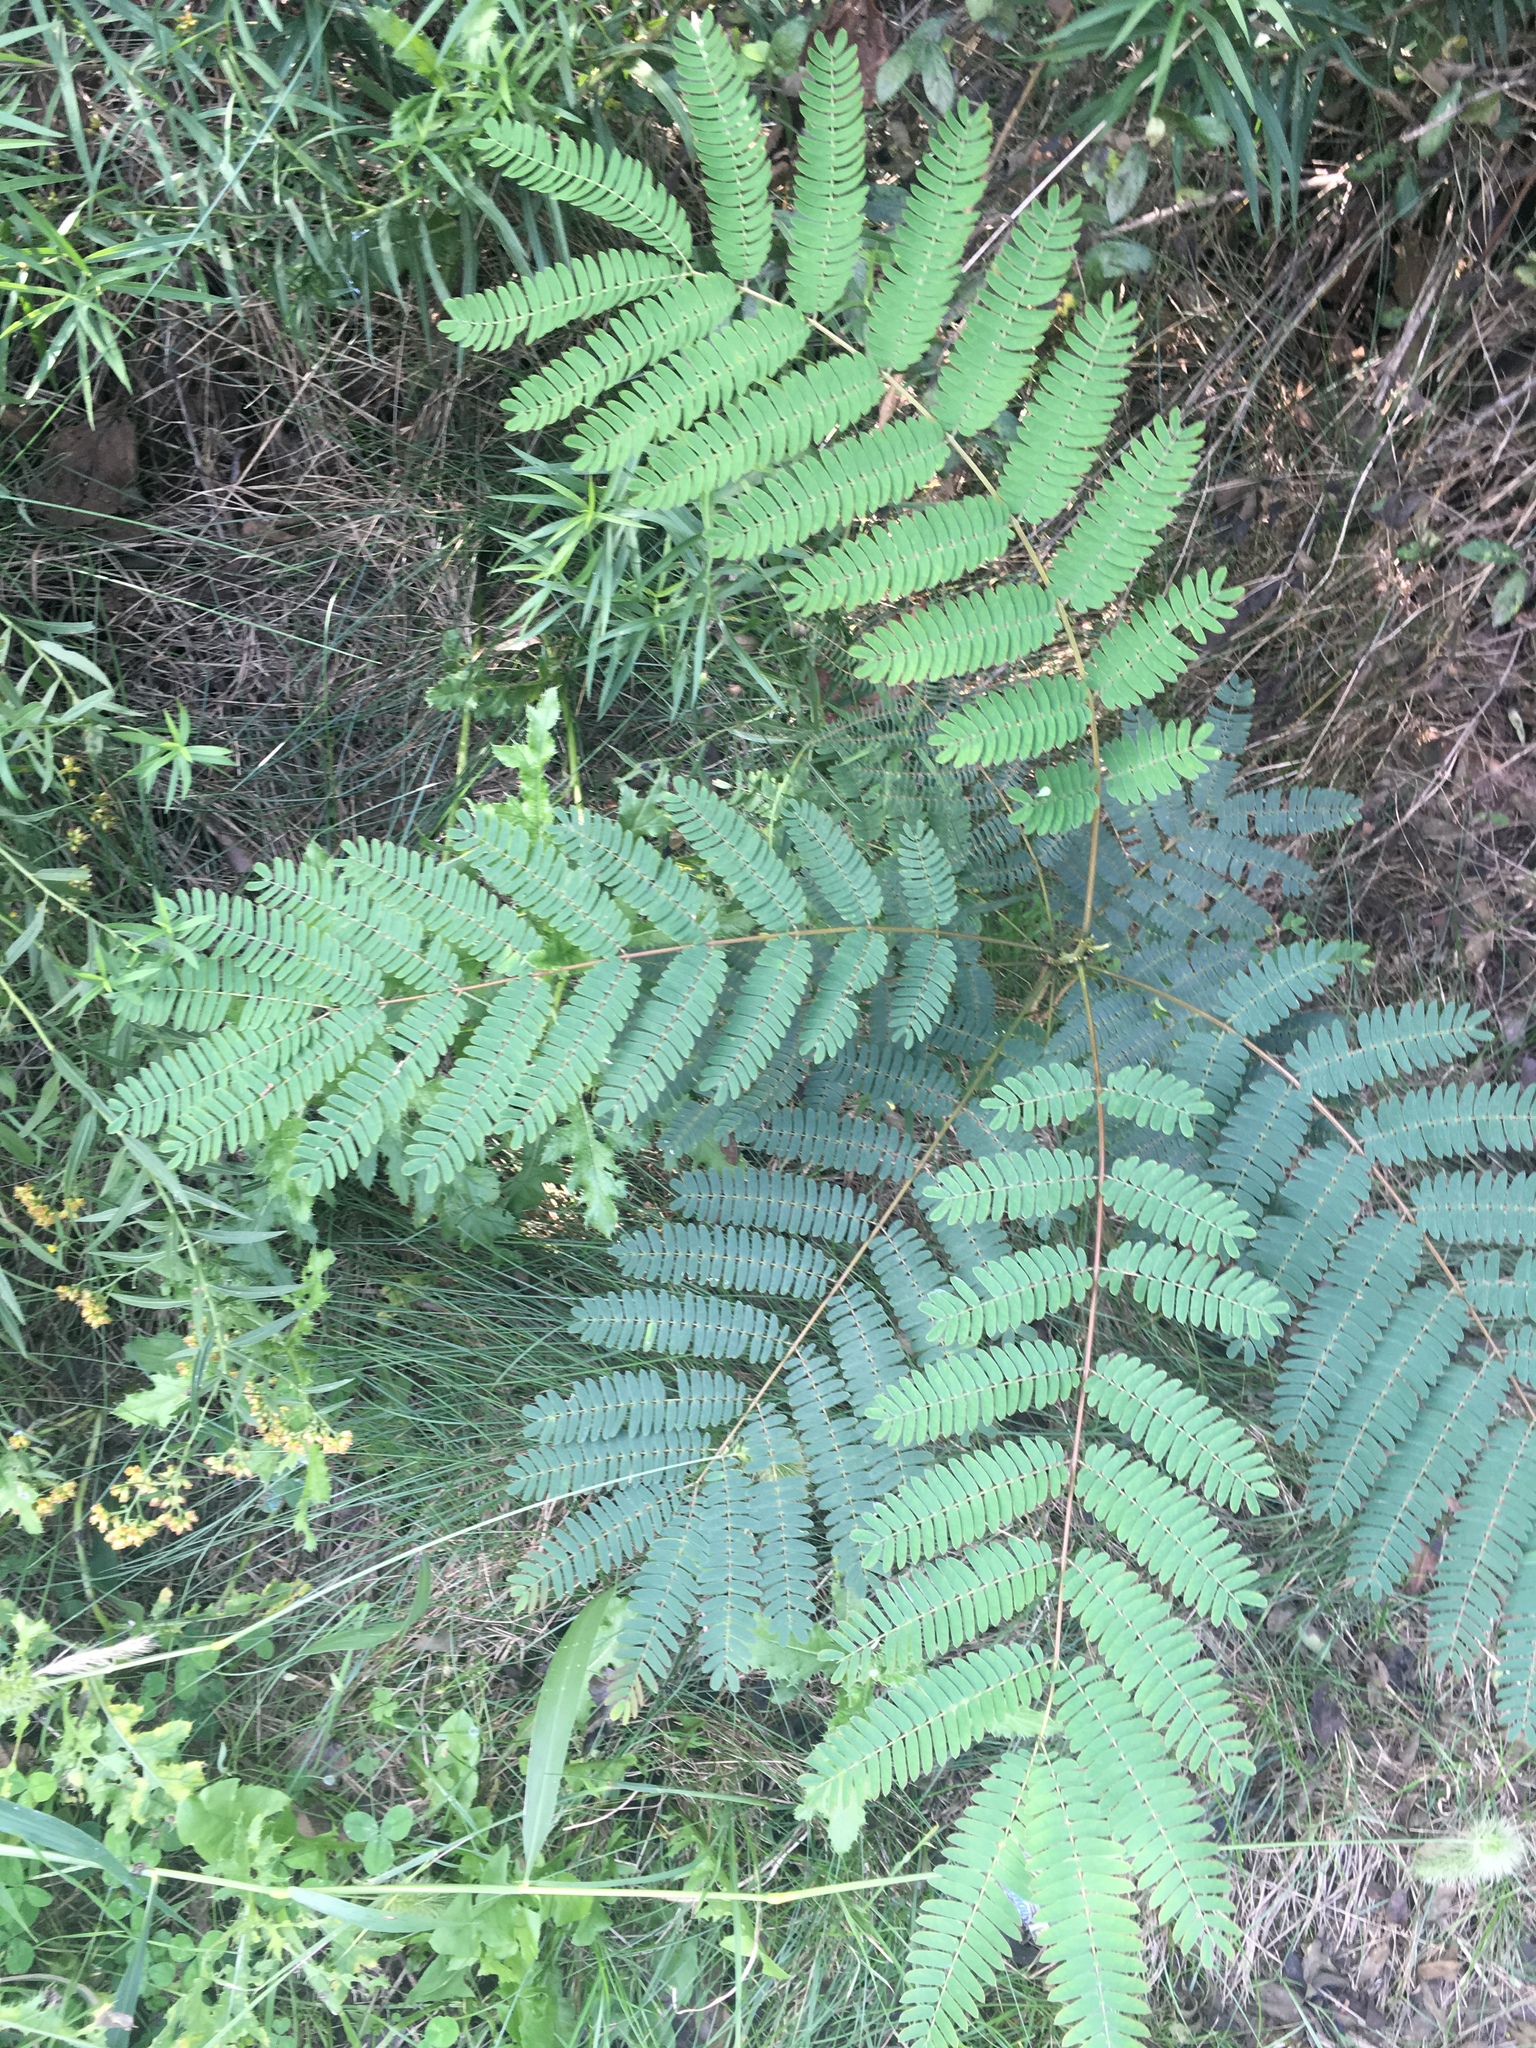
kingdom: Plantae
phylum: Tracheophyta
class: Magnoliopsida
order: Fabales
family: Fabaceae
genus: Albizia
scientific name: Albizia julibrissin
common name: Silktree
